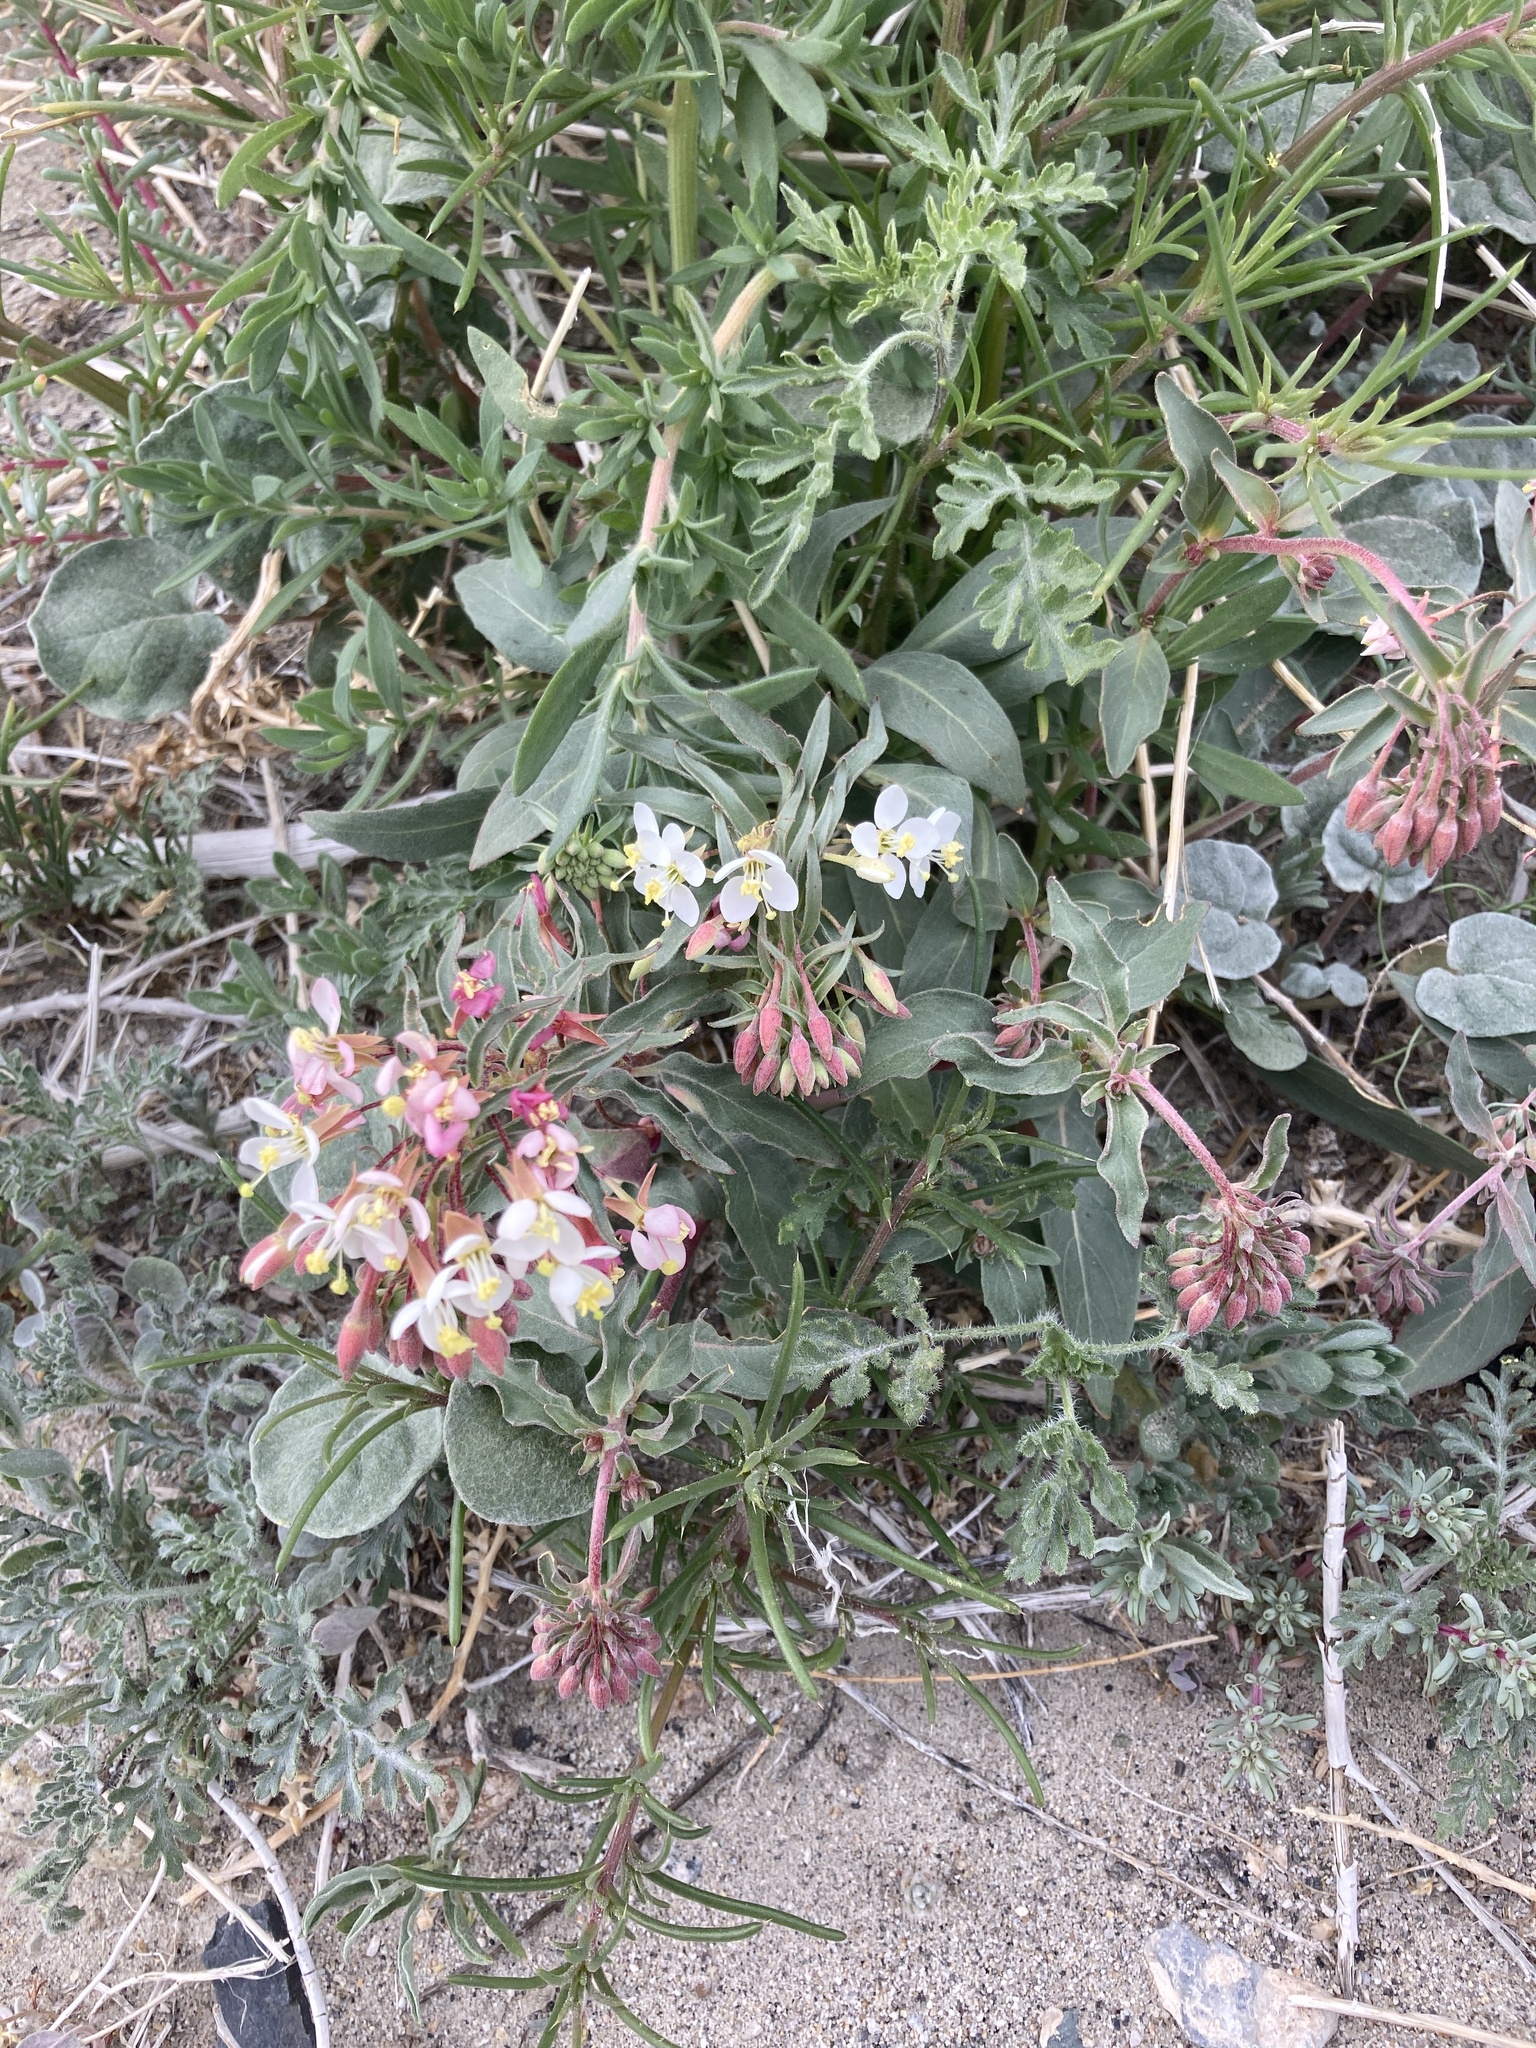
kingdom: Plantae
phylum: Tracheophyta
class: Magnoliopsida
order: Myrtales
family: Onagraceae
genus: Eremothera
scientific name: Eremothera boothii
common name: Booth's evening primrose
